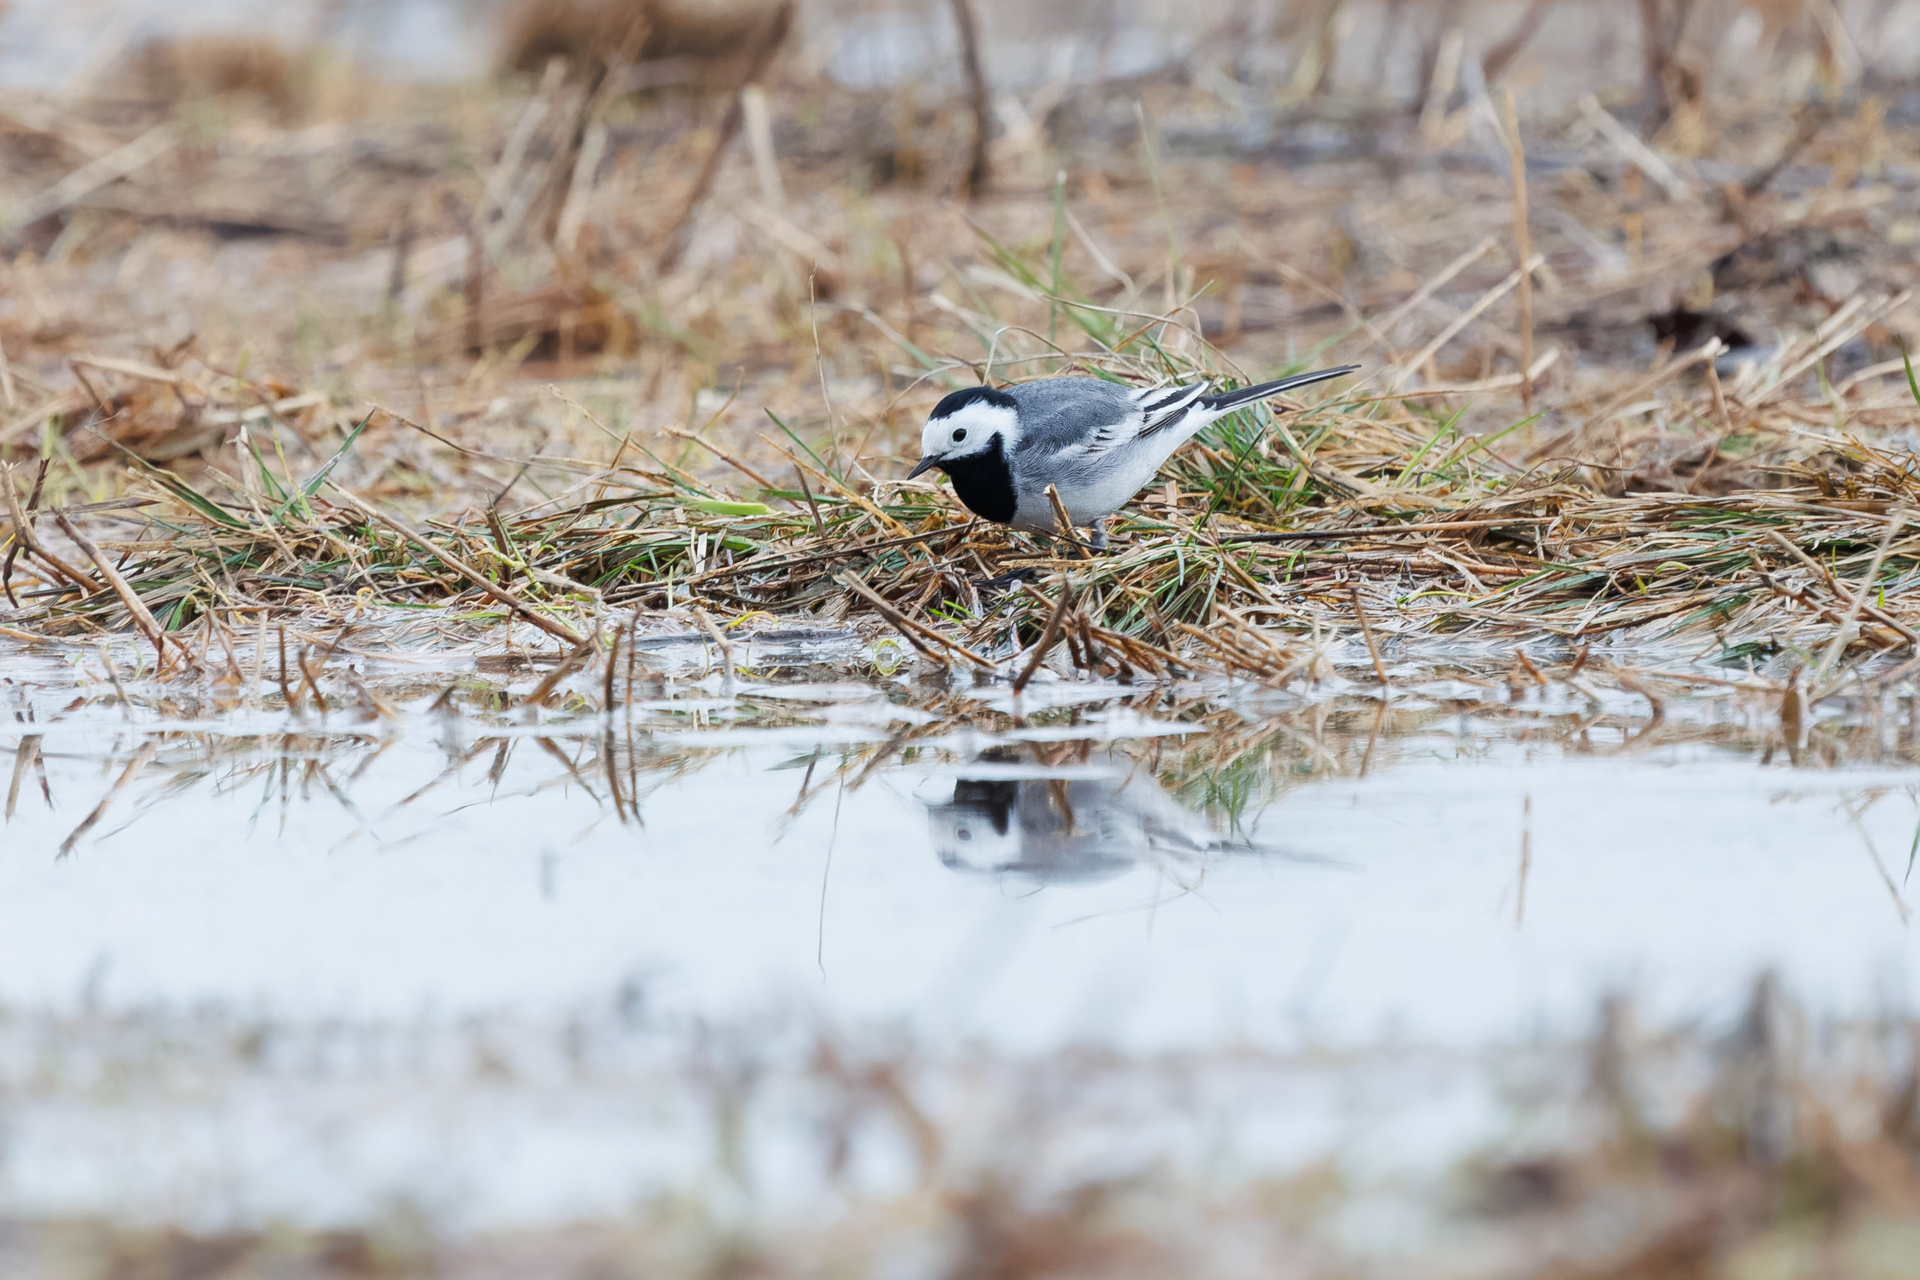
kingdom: Animalia
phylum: Chordata
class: Aves
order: Passeriformes
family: Motacillidae
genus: Motacilla
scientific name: Motacilla alba
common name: White wagtail
